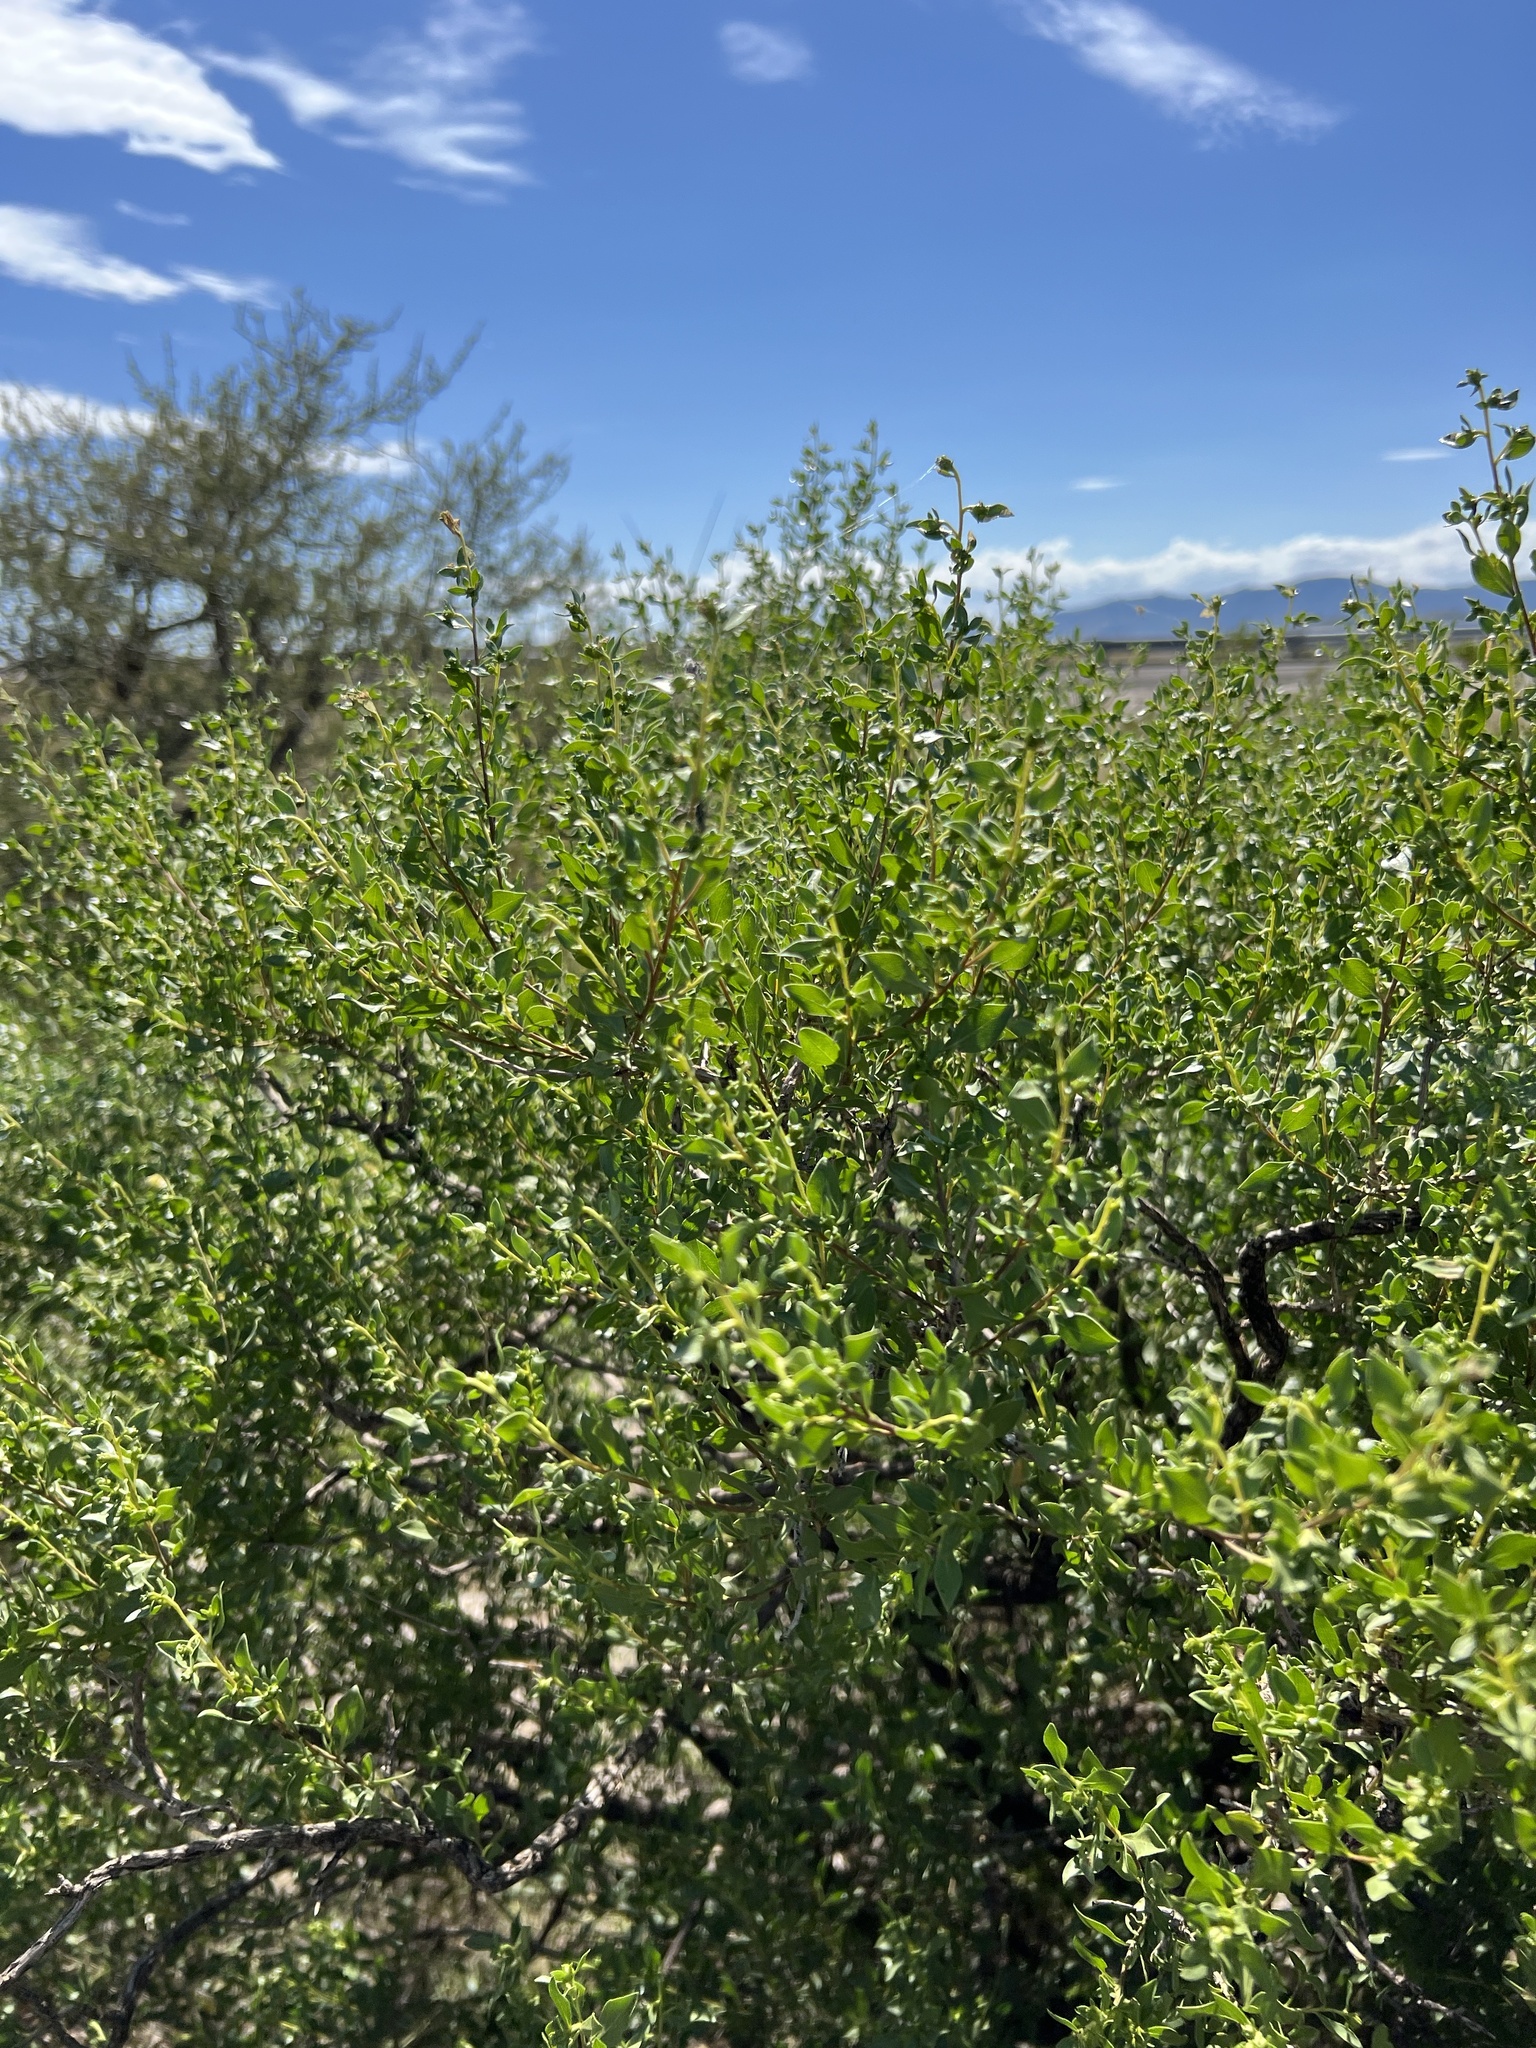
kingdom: Plantae
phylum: Tracheophyta
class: Magnoliopsida
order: Asterales
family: Asteraceae
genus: Flourensia
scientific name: Flourensia cernua
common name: Varnishbush
